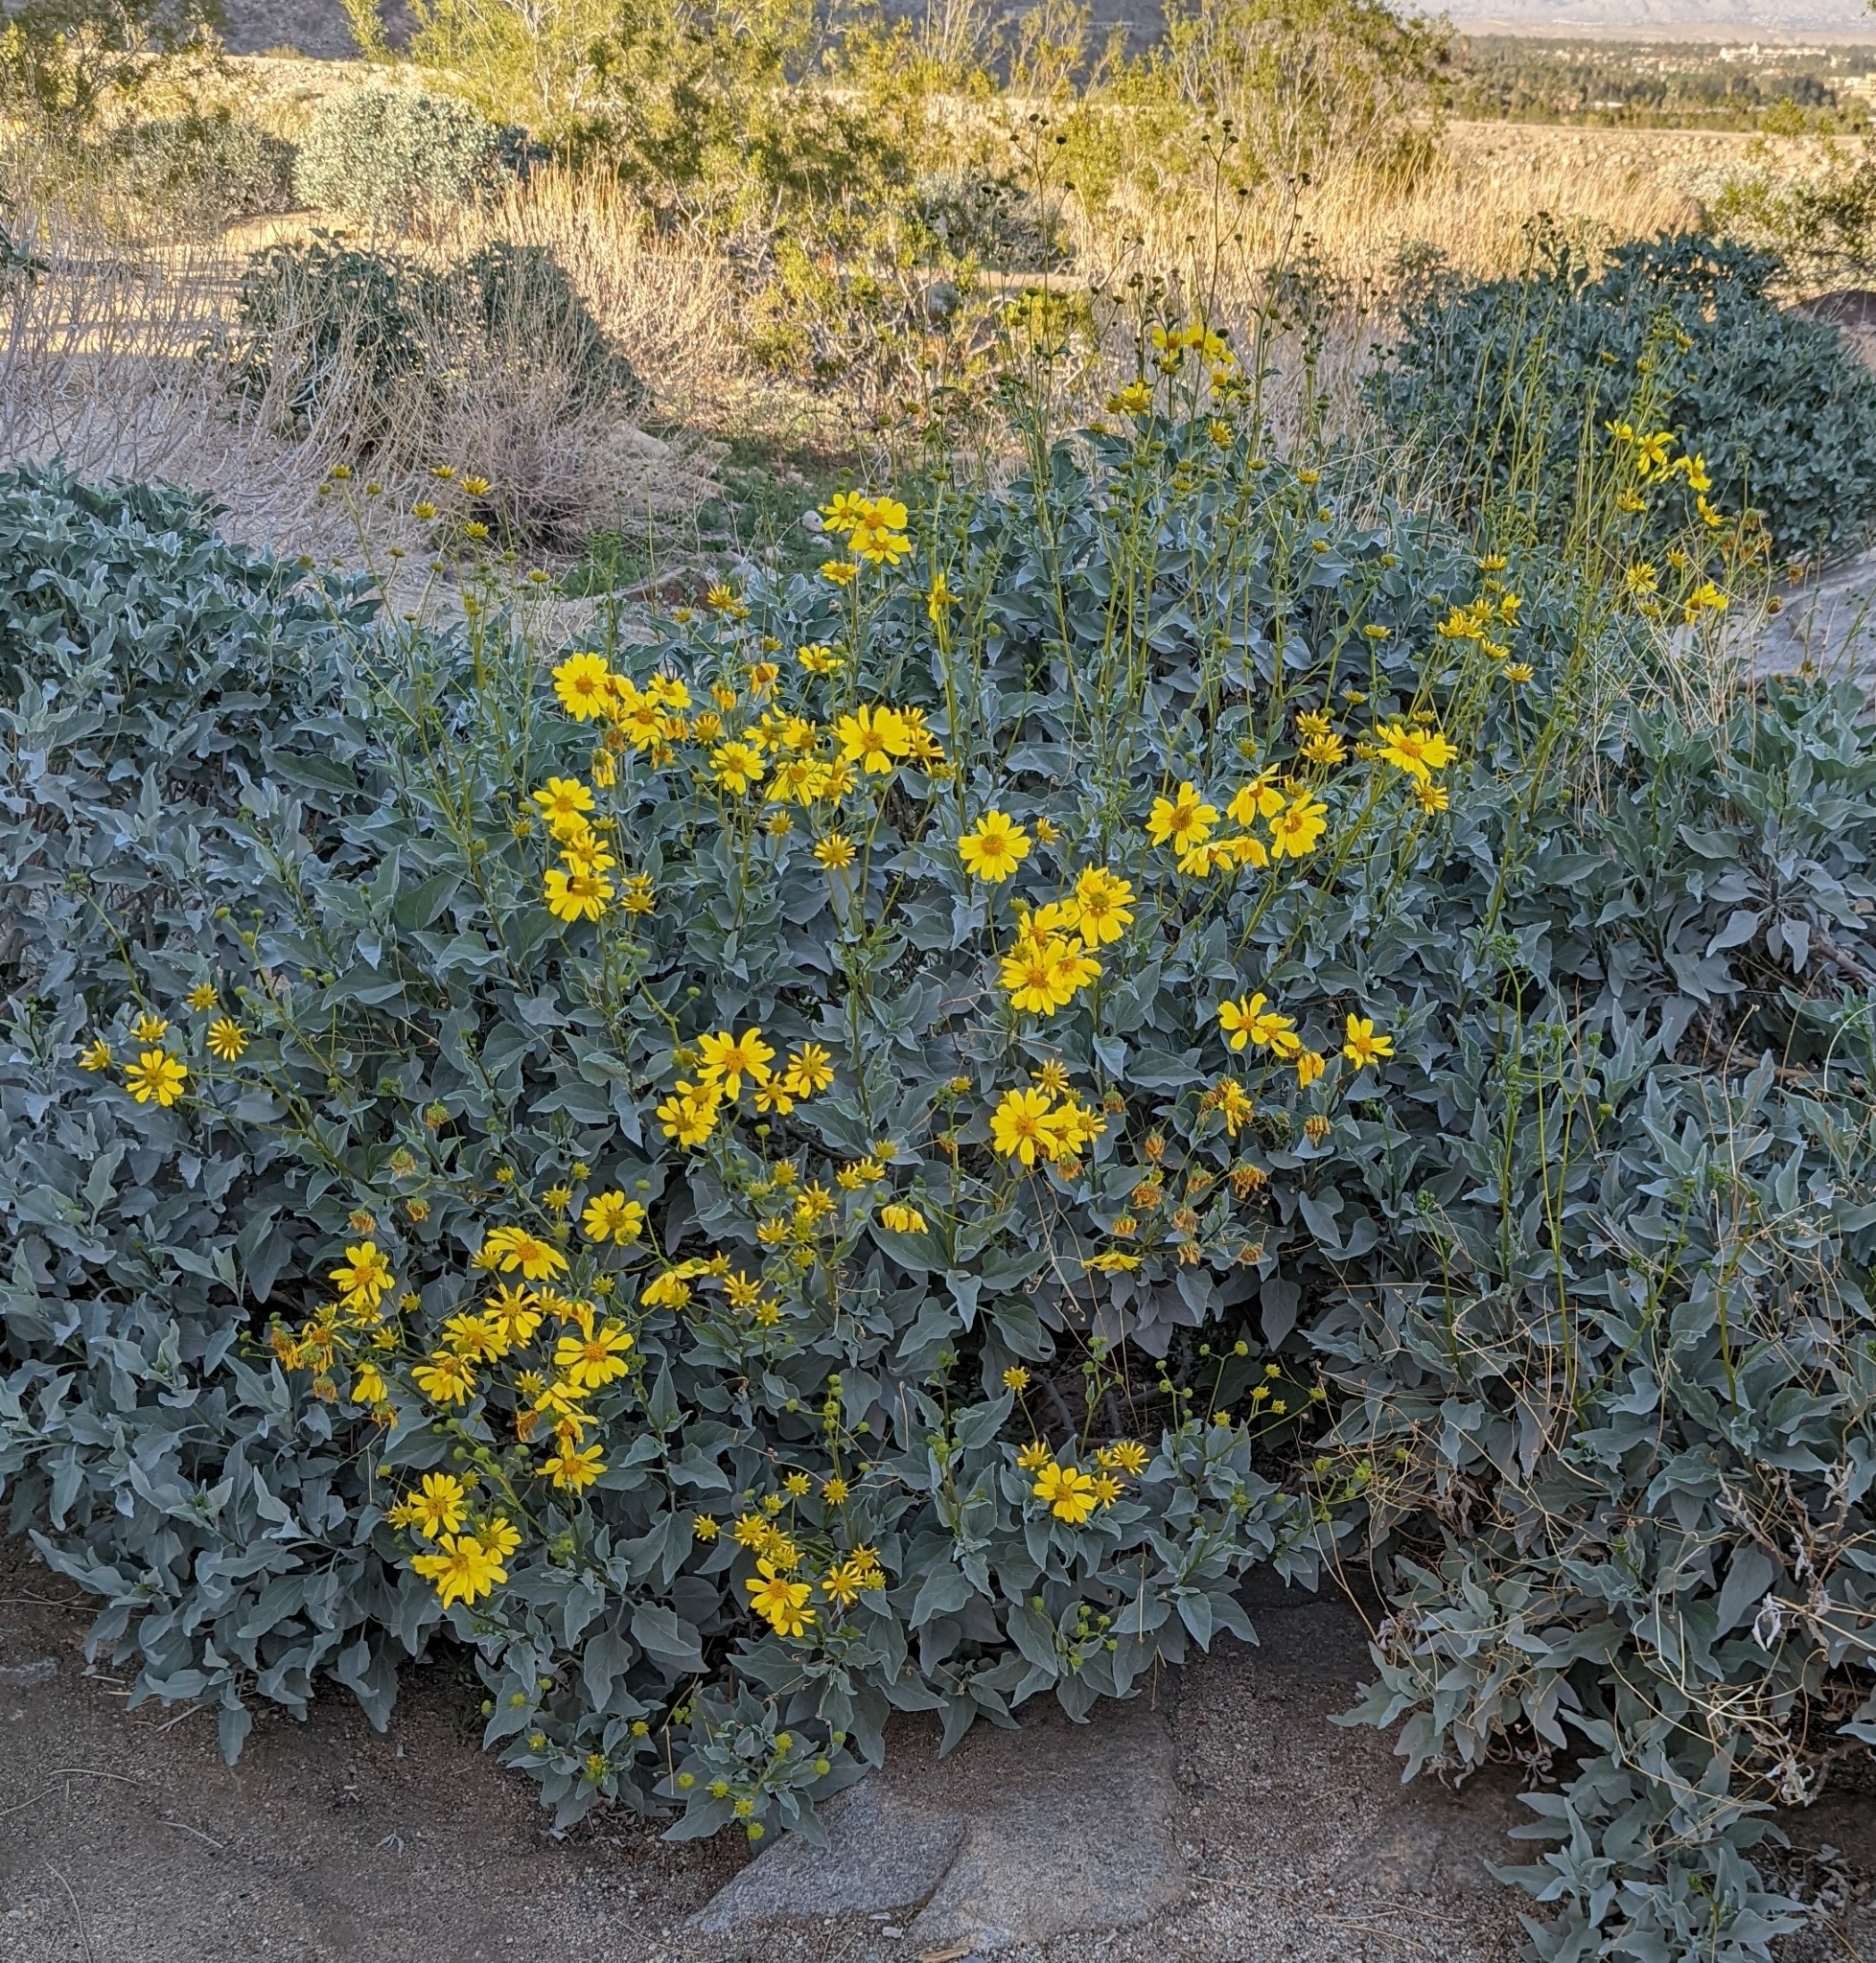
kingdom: Plantae
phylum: Tracheophyta
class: Magnoliopsida
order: Asterales
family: Asteraceae
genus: Encelia
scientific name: Encelia farinosa
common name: Brittlebush
